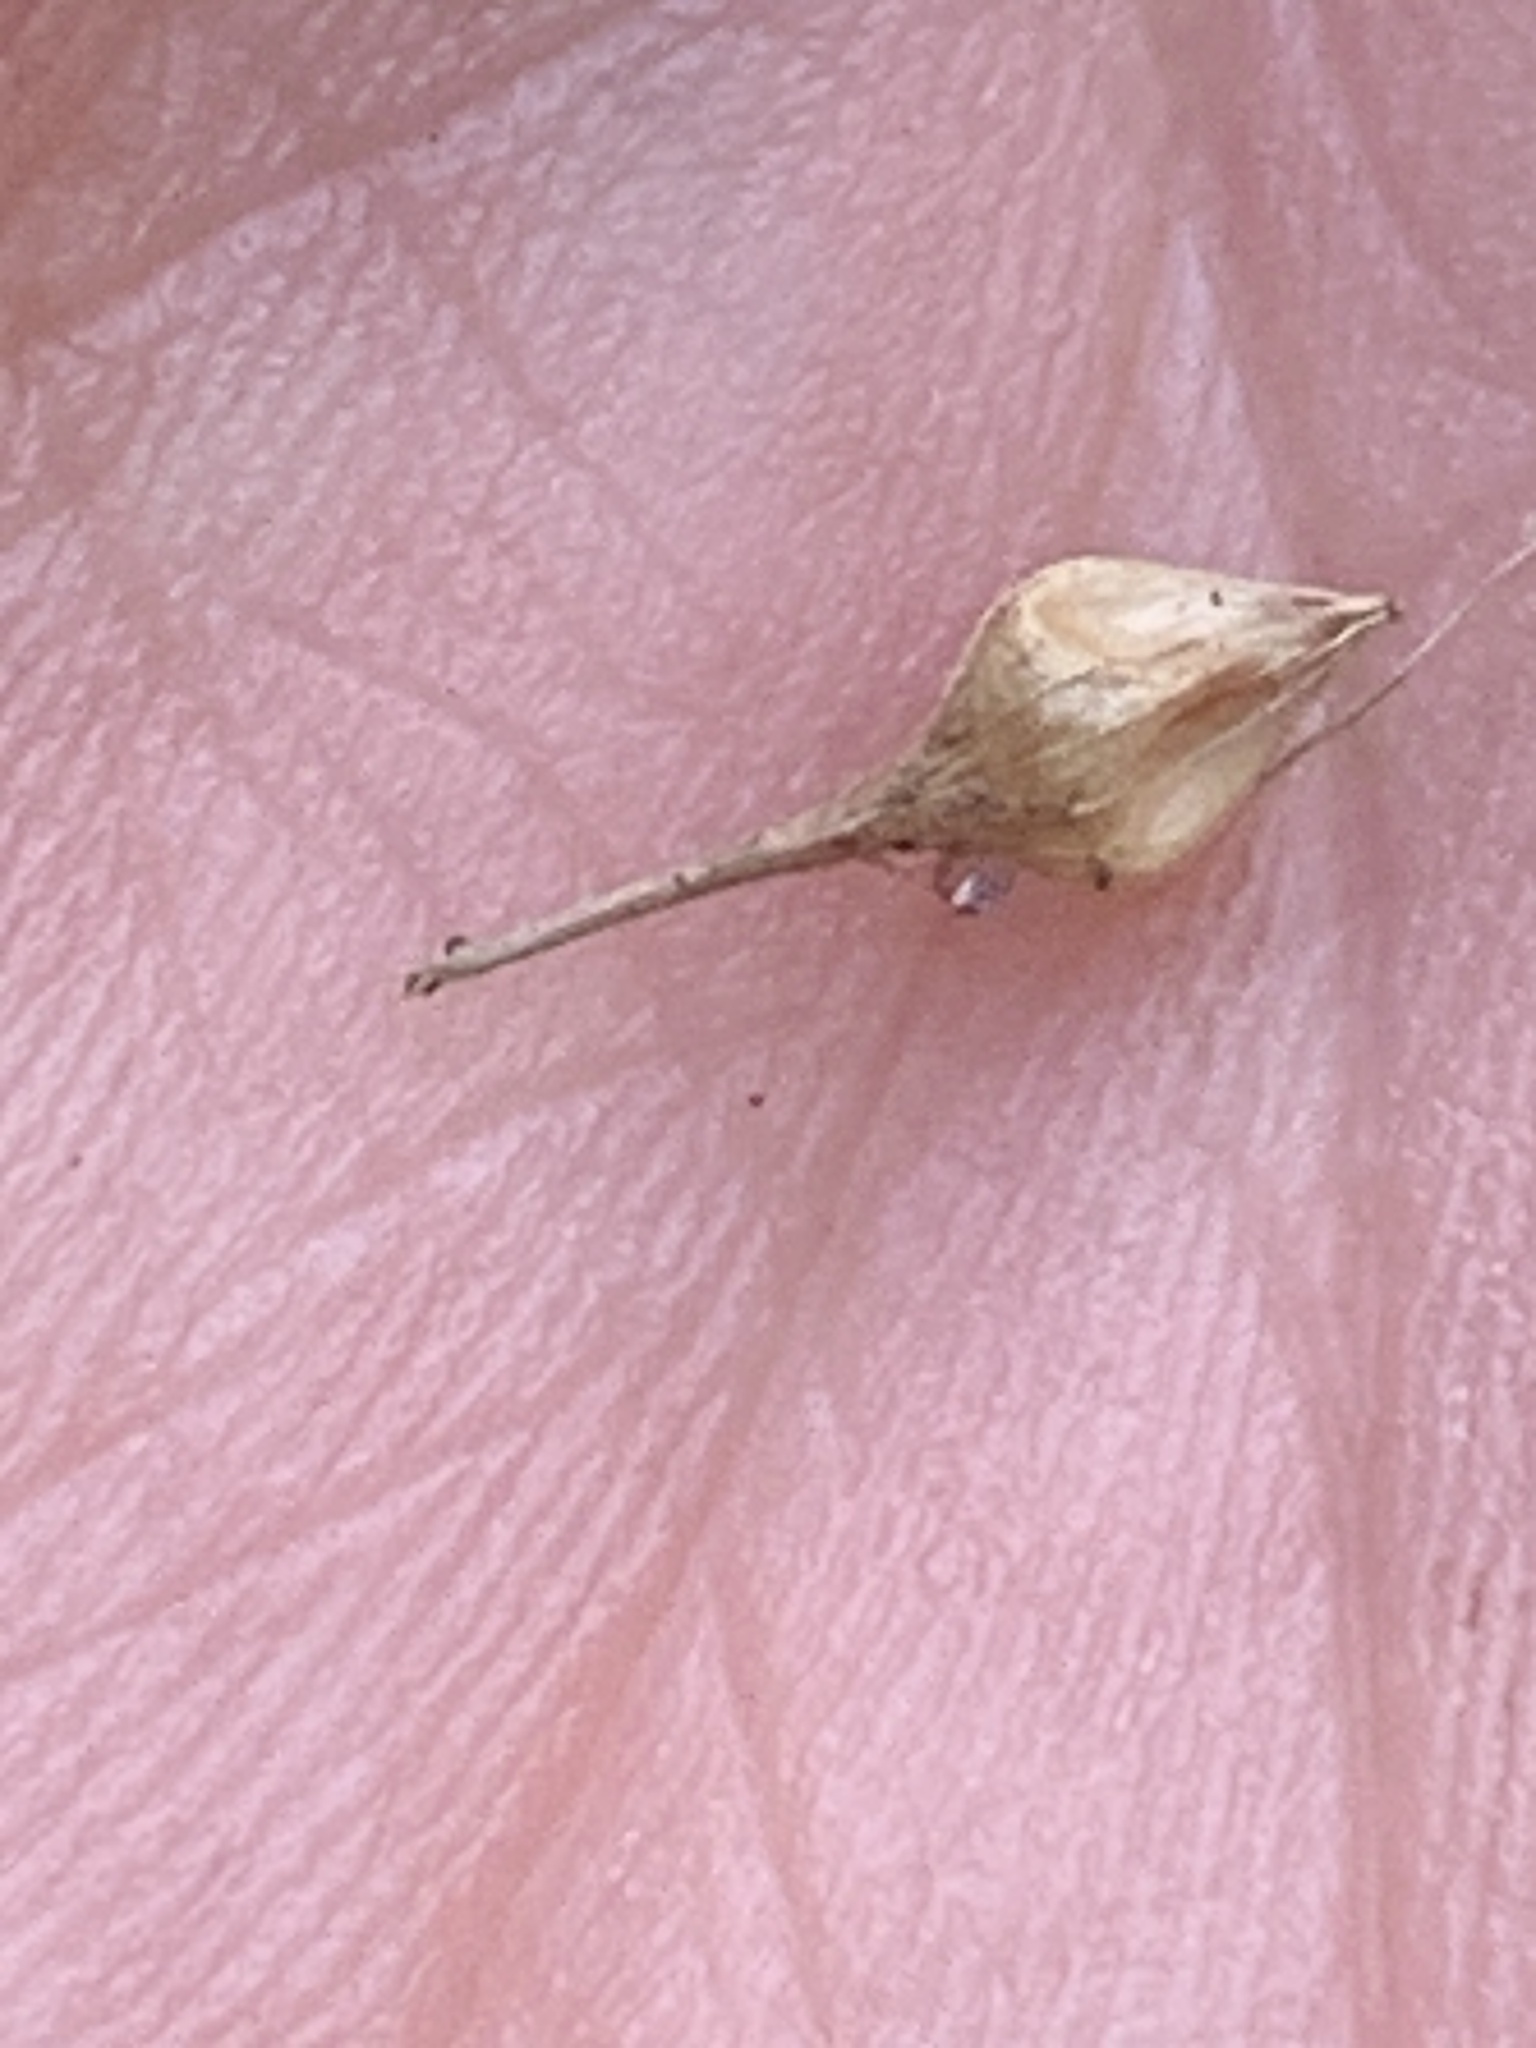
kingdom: Plantae
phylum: Tracheophyta
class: Liliopsida
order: Poales
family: Cyperaceae
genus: Carex
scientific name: Carex lurida
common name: Sallow sedge
